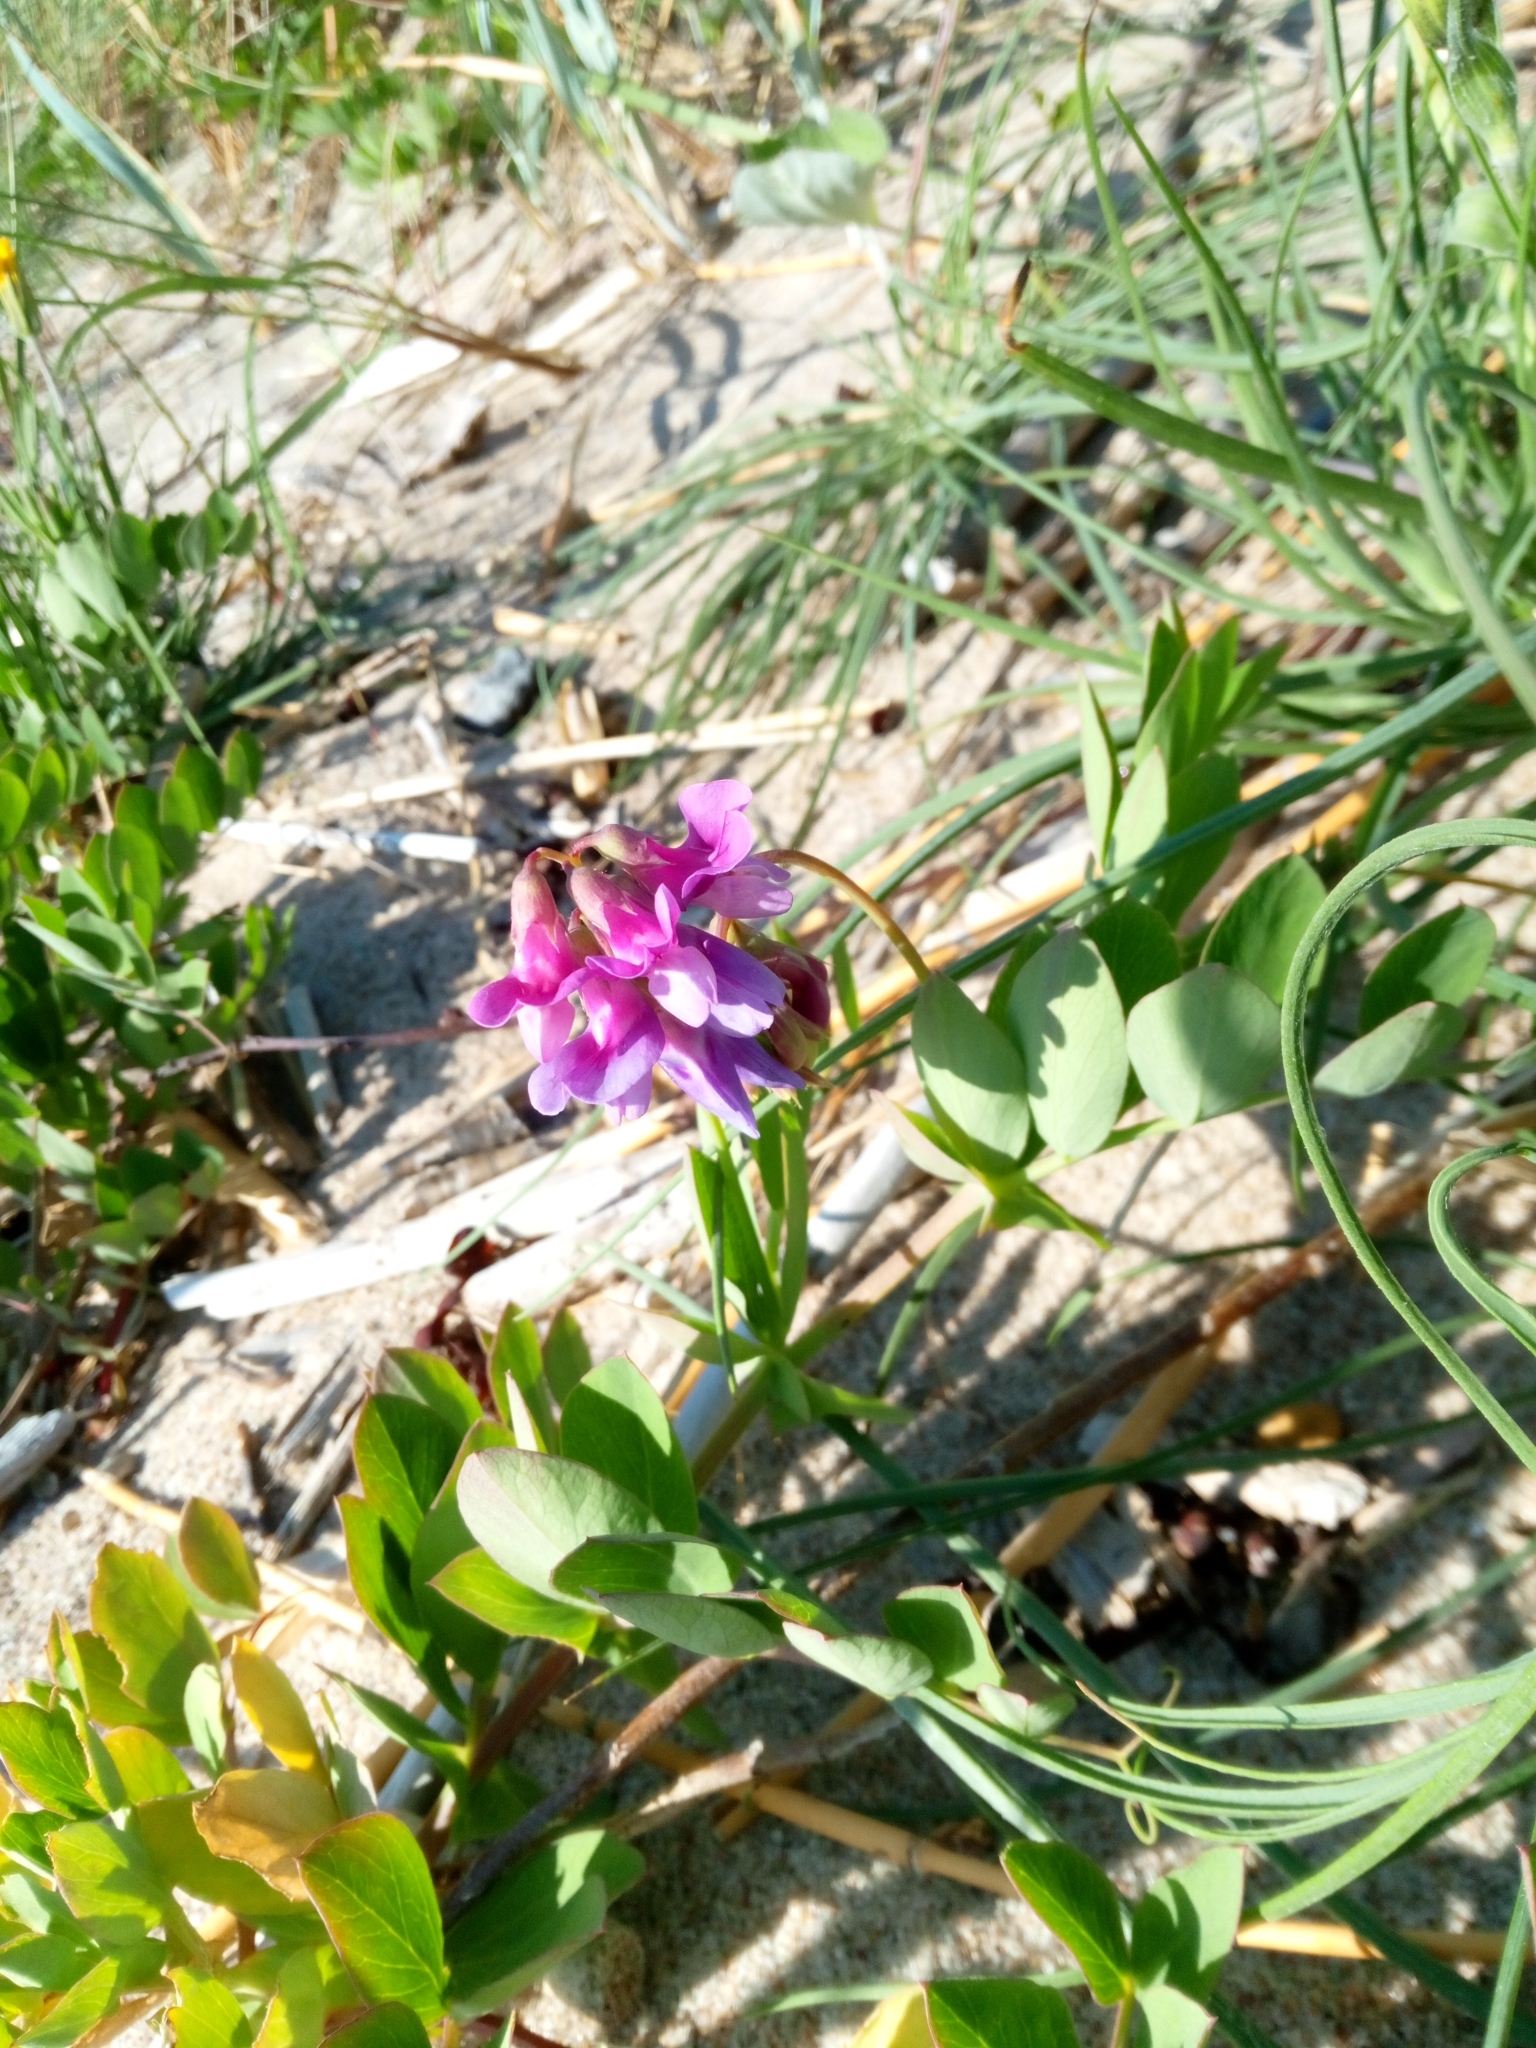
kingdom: Plantae
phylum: Tracheophyta
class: Magnoliopsida
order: Fabales
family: Fabaceae
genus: Lathyrus
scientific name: Lathyrus japonicus
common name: Sea pea
